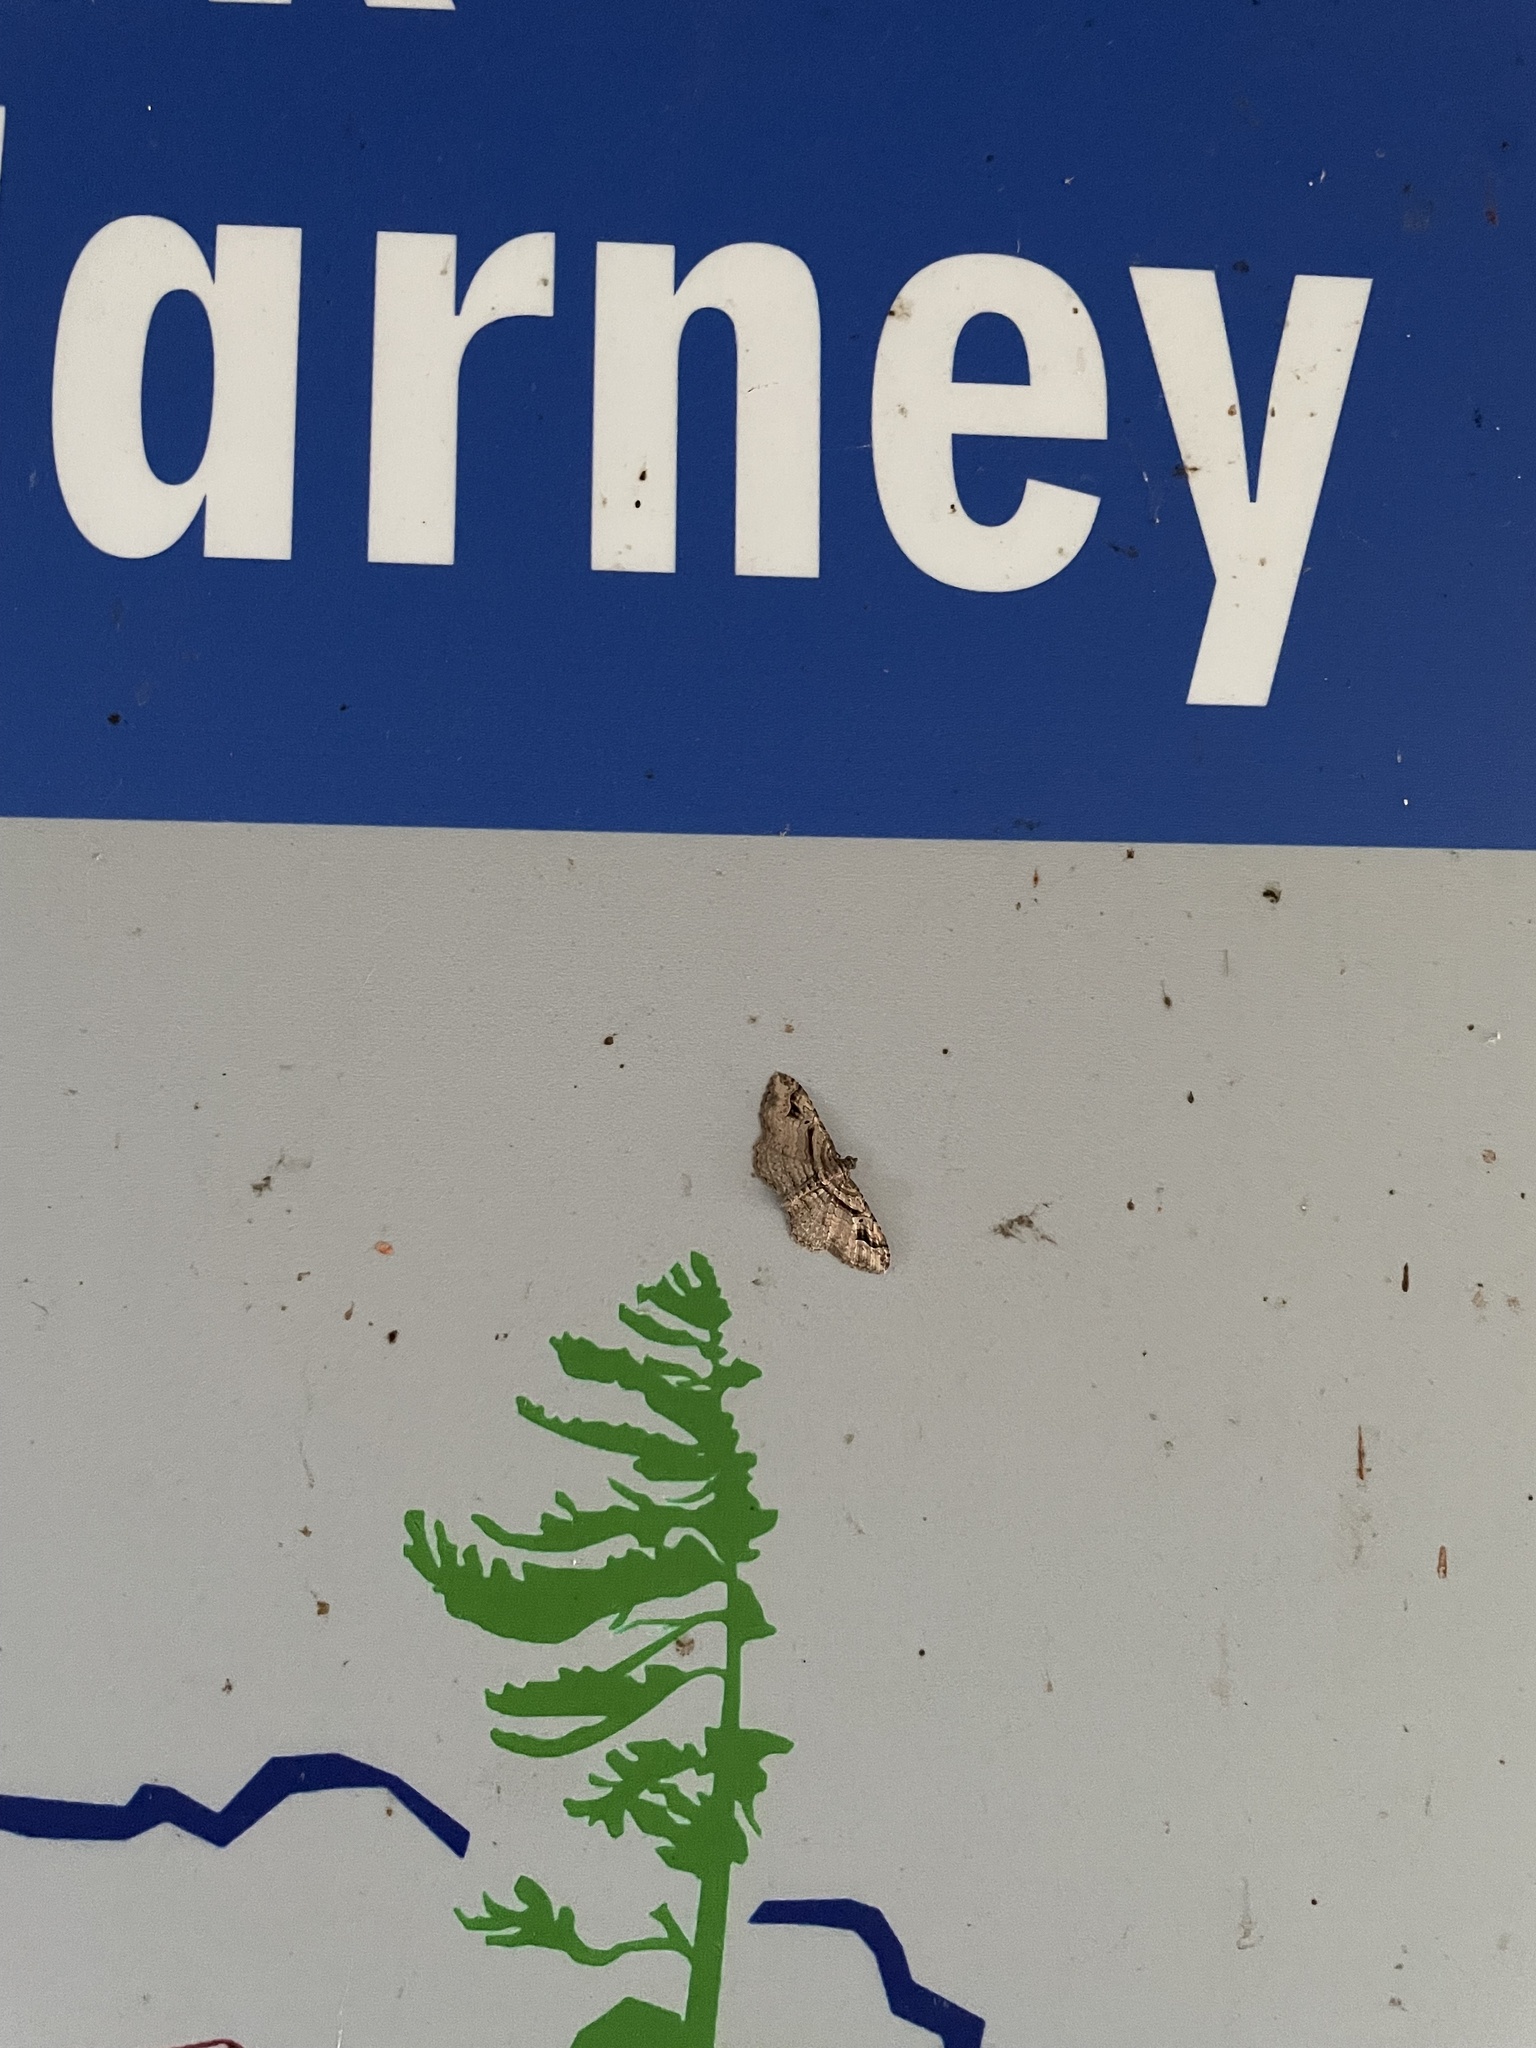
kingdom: Animalia
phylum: Arthropoda
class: Insecta
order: Lepidoptera
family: Geometridae
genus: Costaconvexa
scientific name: Costaconvexa centrostrigaria
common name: Bent-line carpet
